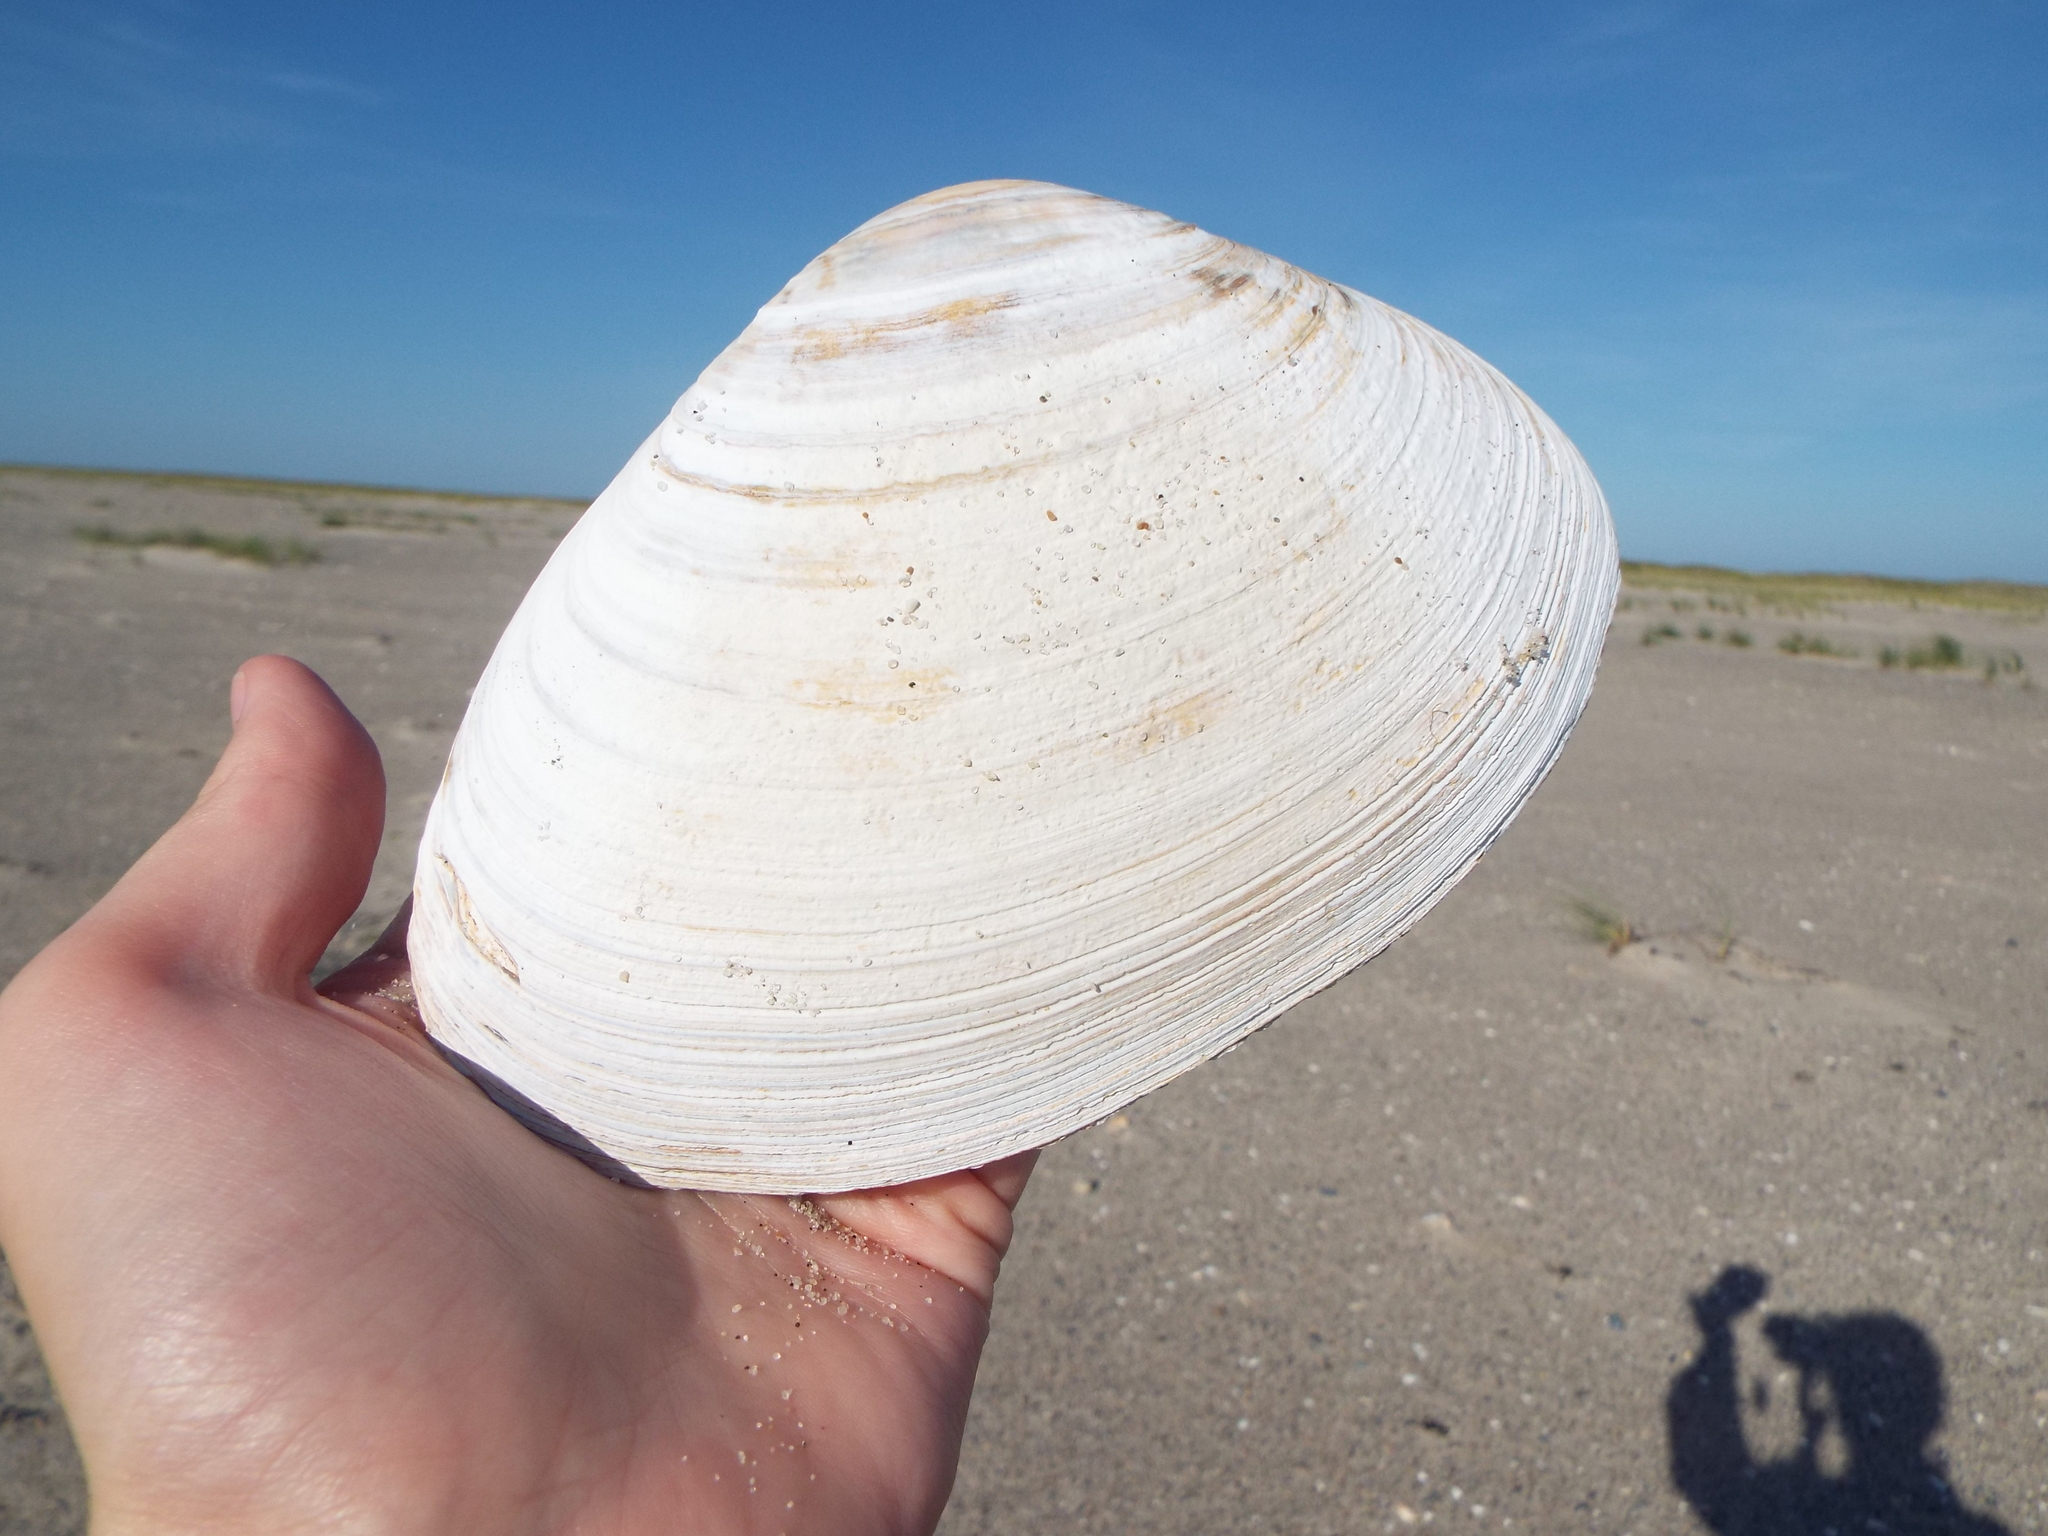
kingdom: Animalia
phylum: Mollusca
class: Bivalvia
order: Venerida
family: Mactridae
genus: Spisula
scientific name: Spisula solidissima
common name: Atlantic surf clam
